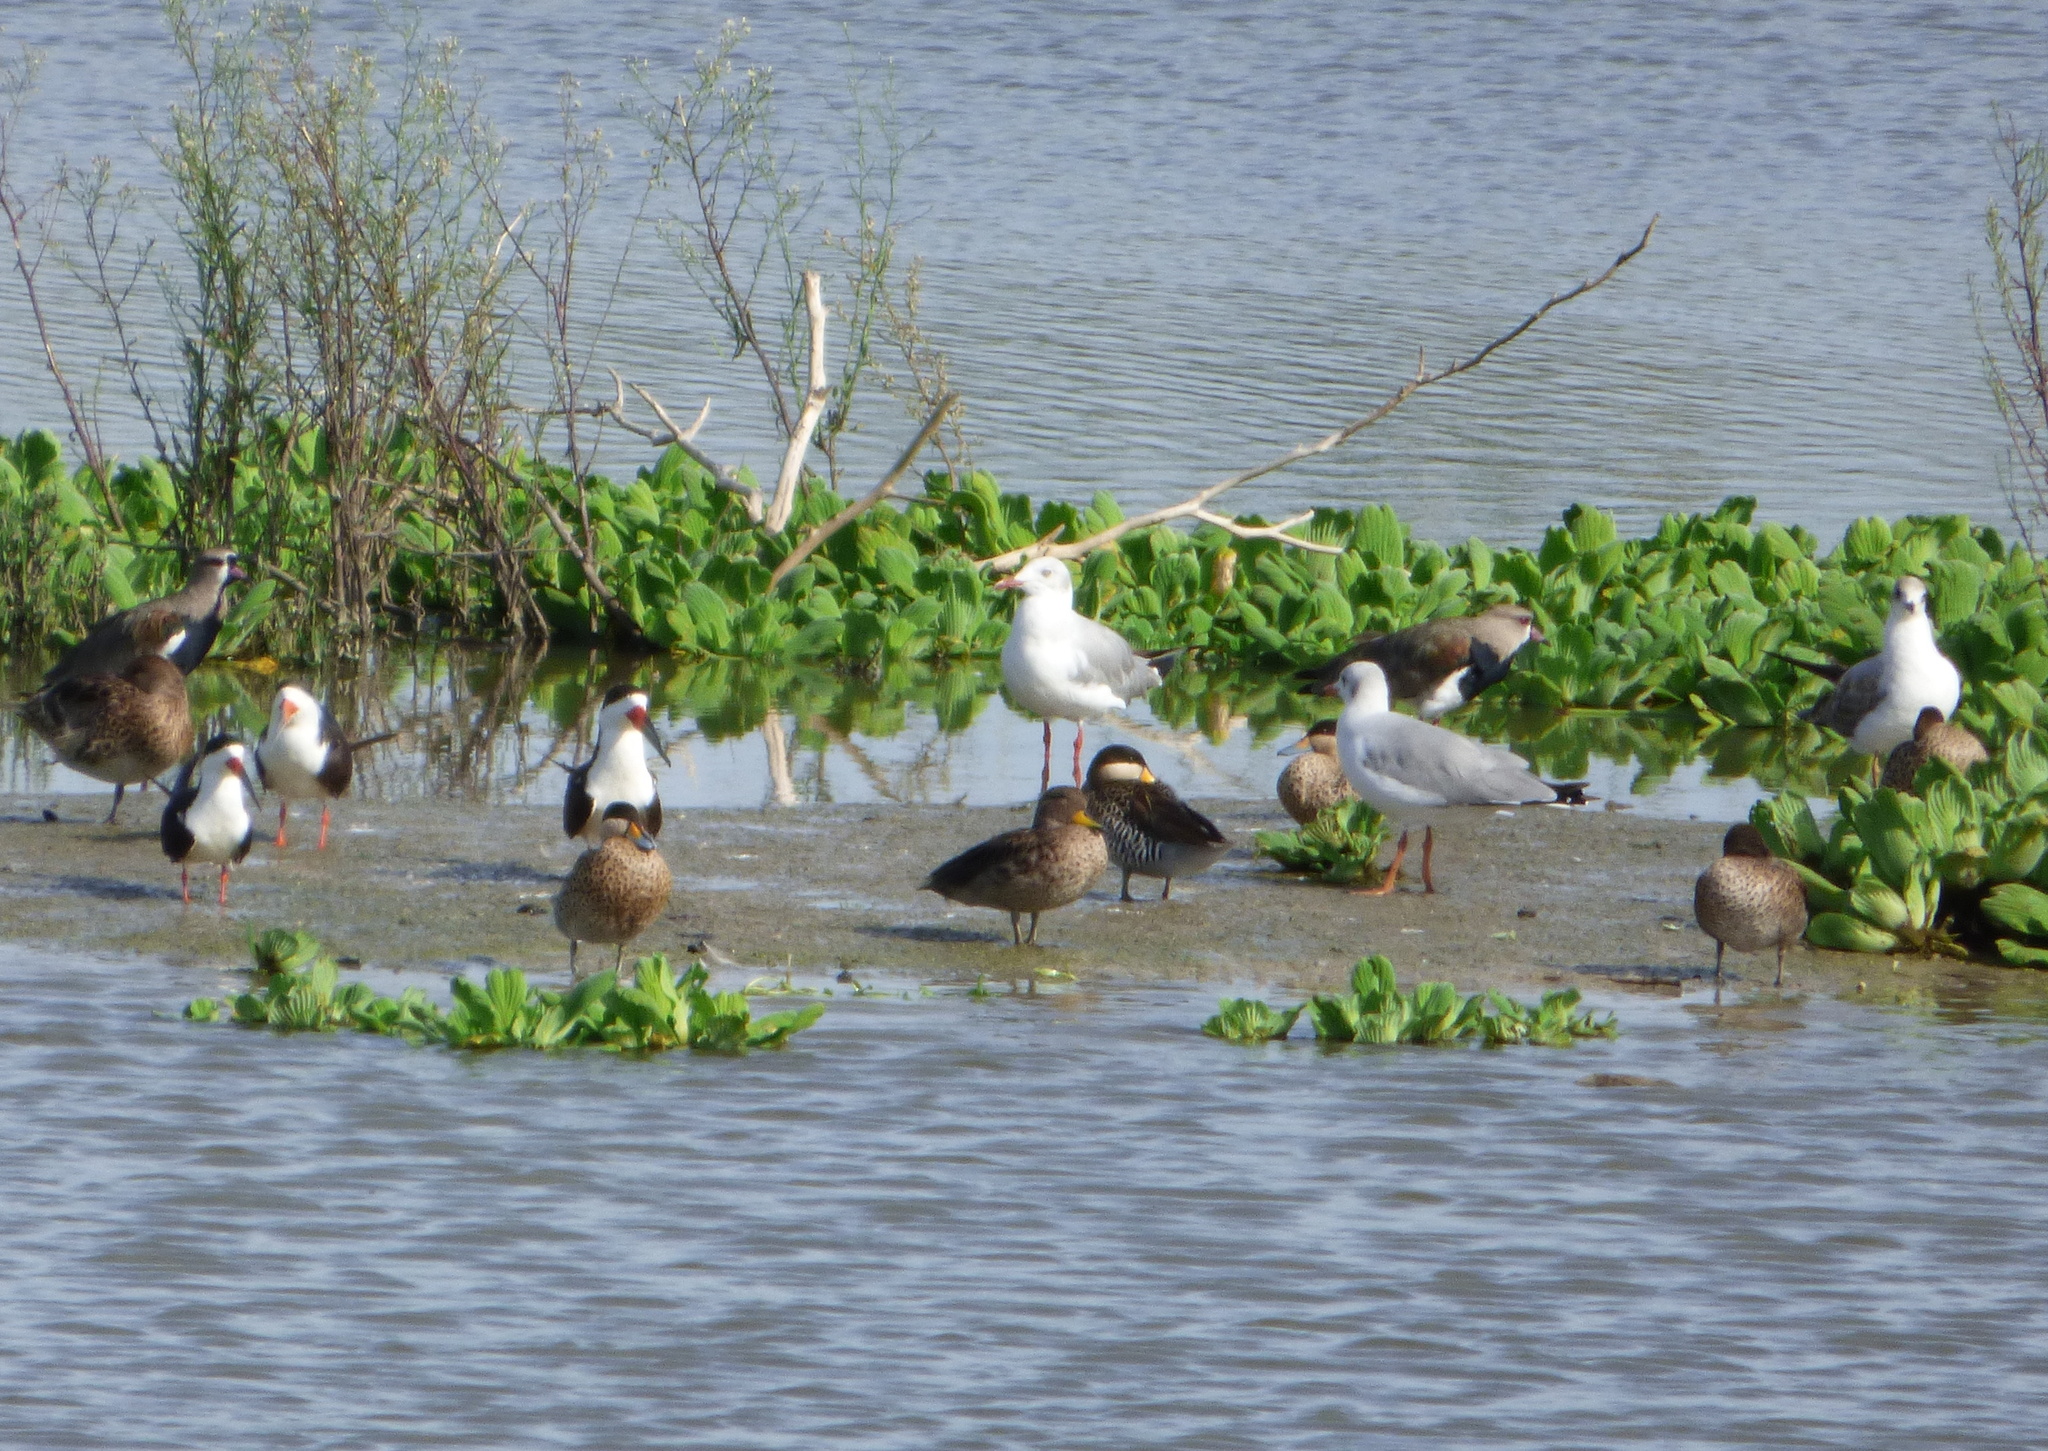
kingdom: Animalia
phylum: Chordata
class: Aves
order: Anseriformes
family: Anatidae
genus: Anas
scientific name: Anas flavirostris
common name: Yellow-billed teal
